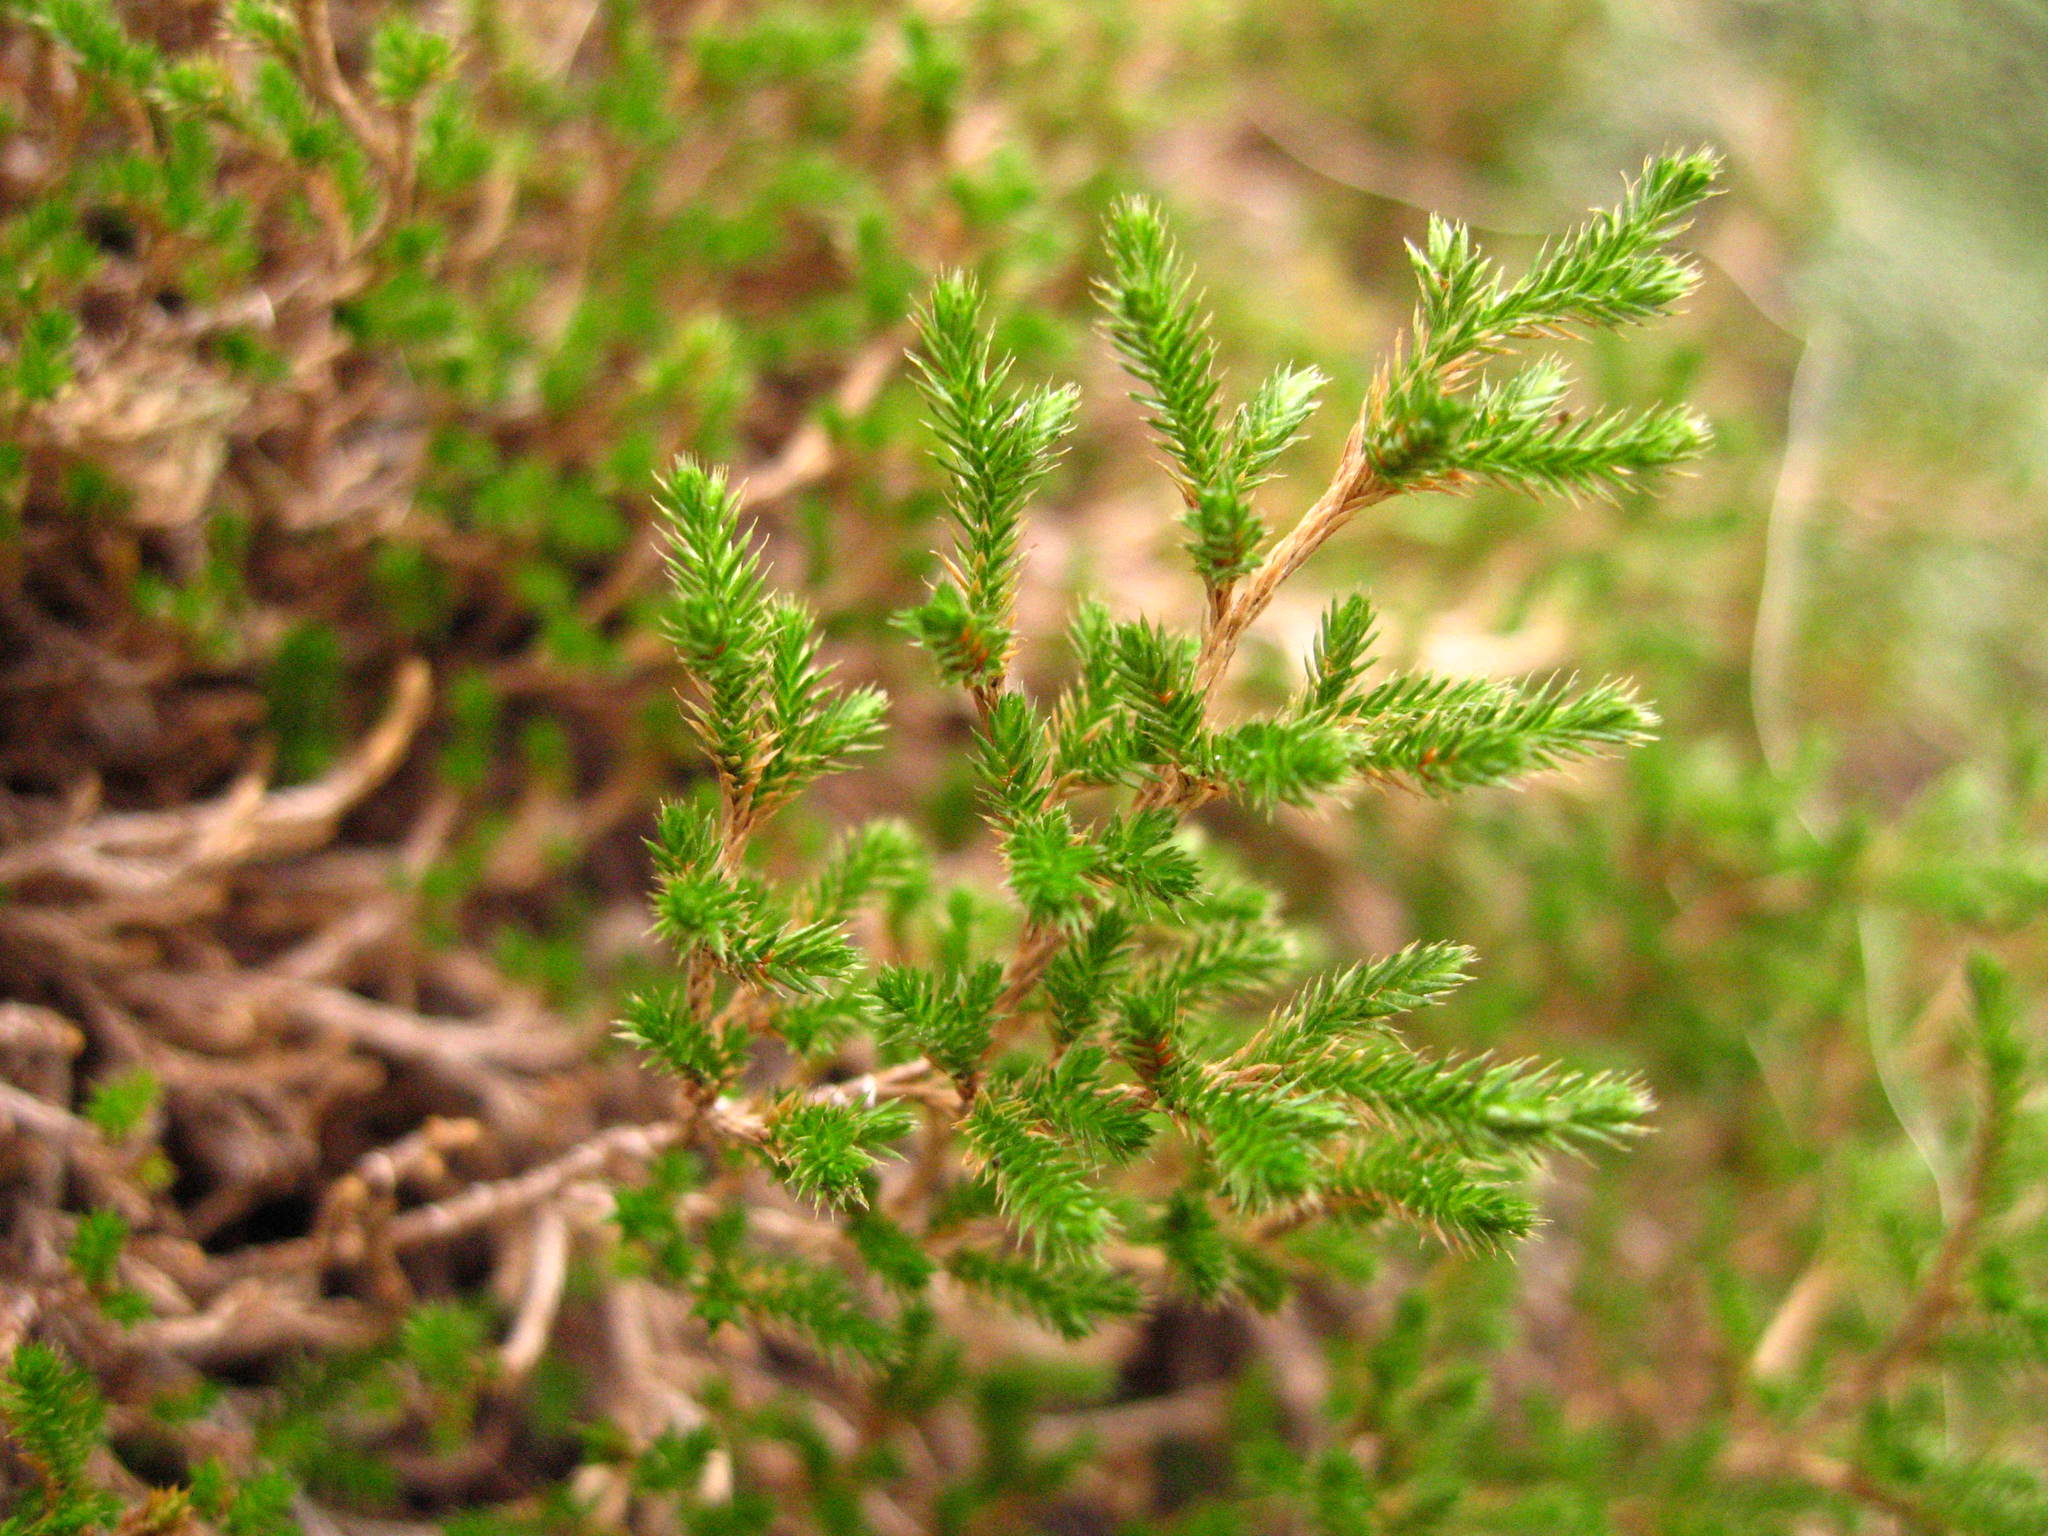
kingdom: Plantae
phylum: Tracheophyta
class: Lycopodiopsida
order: Selaginellales
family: Selaginellaceae
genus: Selaginella
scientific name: Selaginella bigelovii
